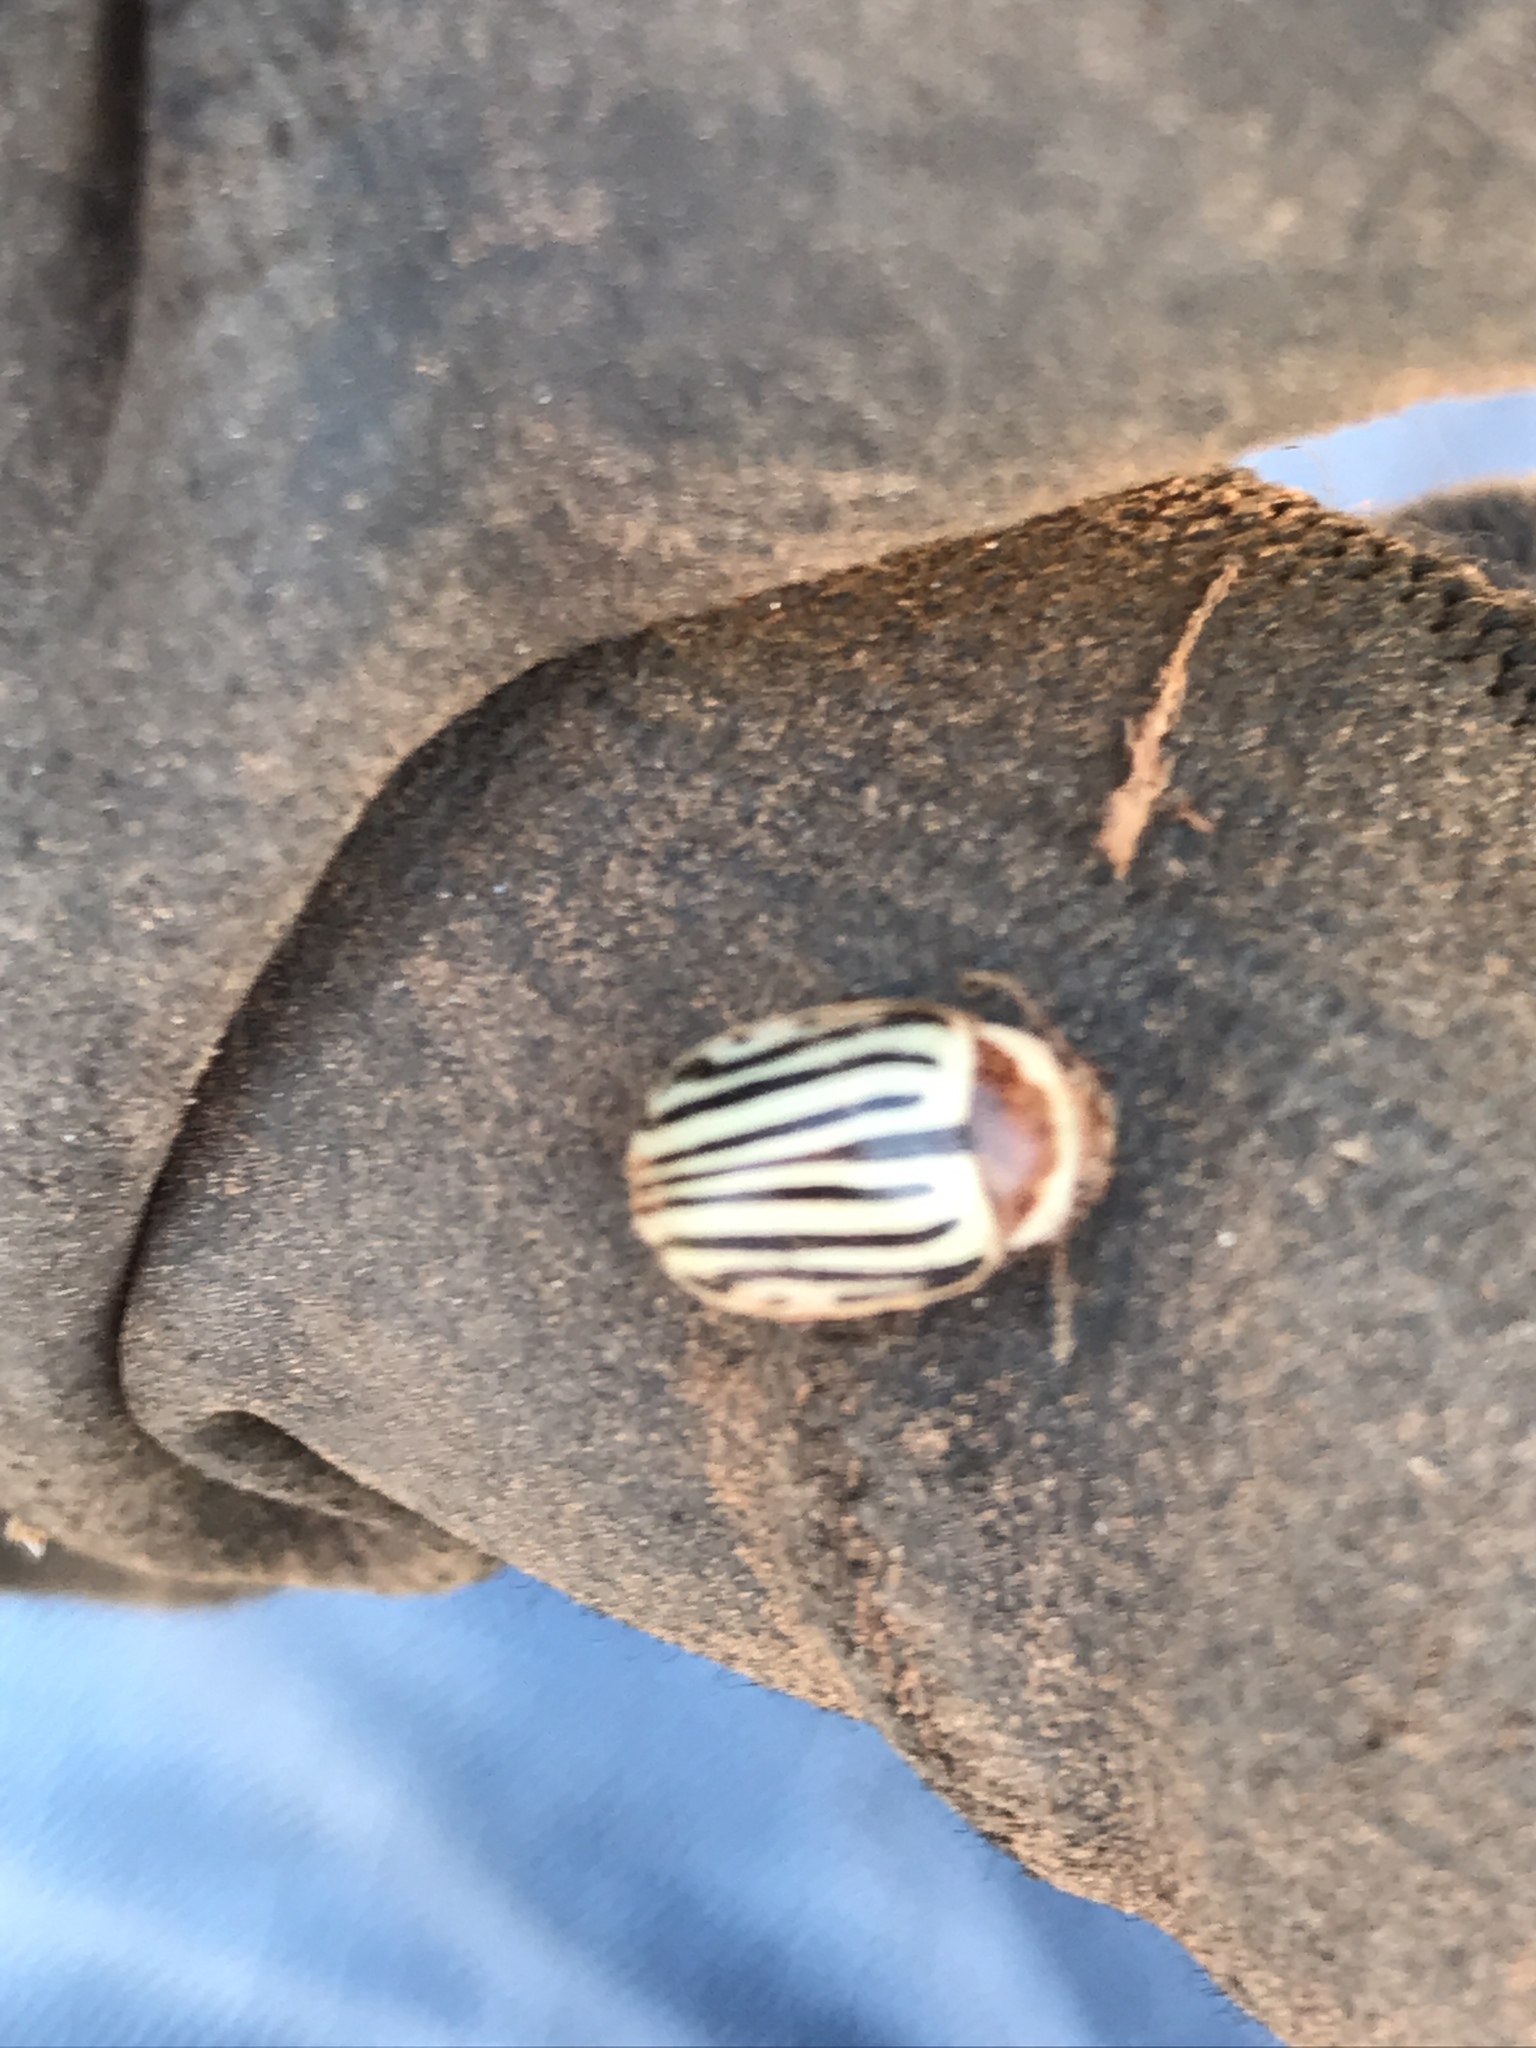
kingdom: Animalia
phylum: Arthropoda
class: Insecta
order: Coleoptera
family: Chrysomelidae
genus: Calligrapha
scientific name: Calligrapha
